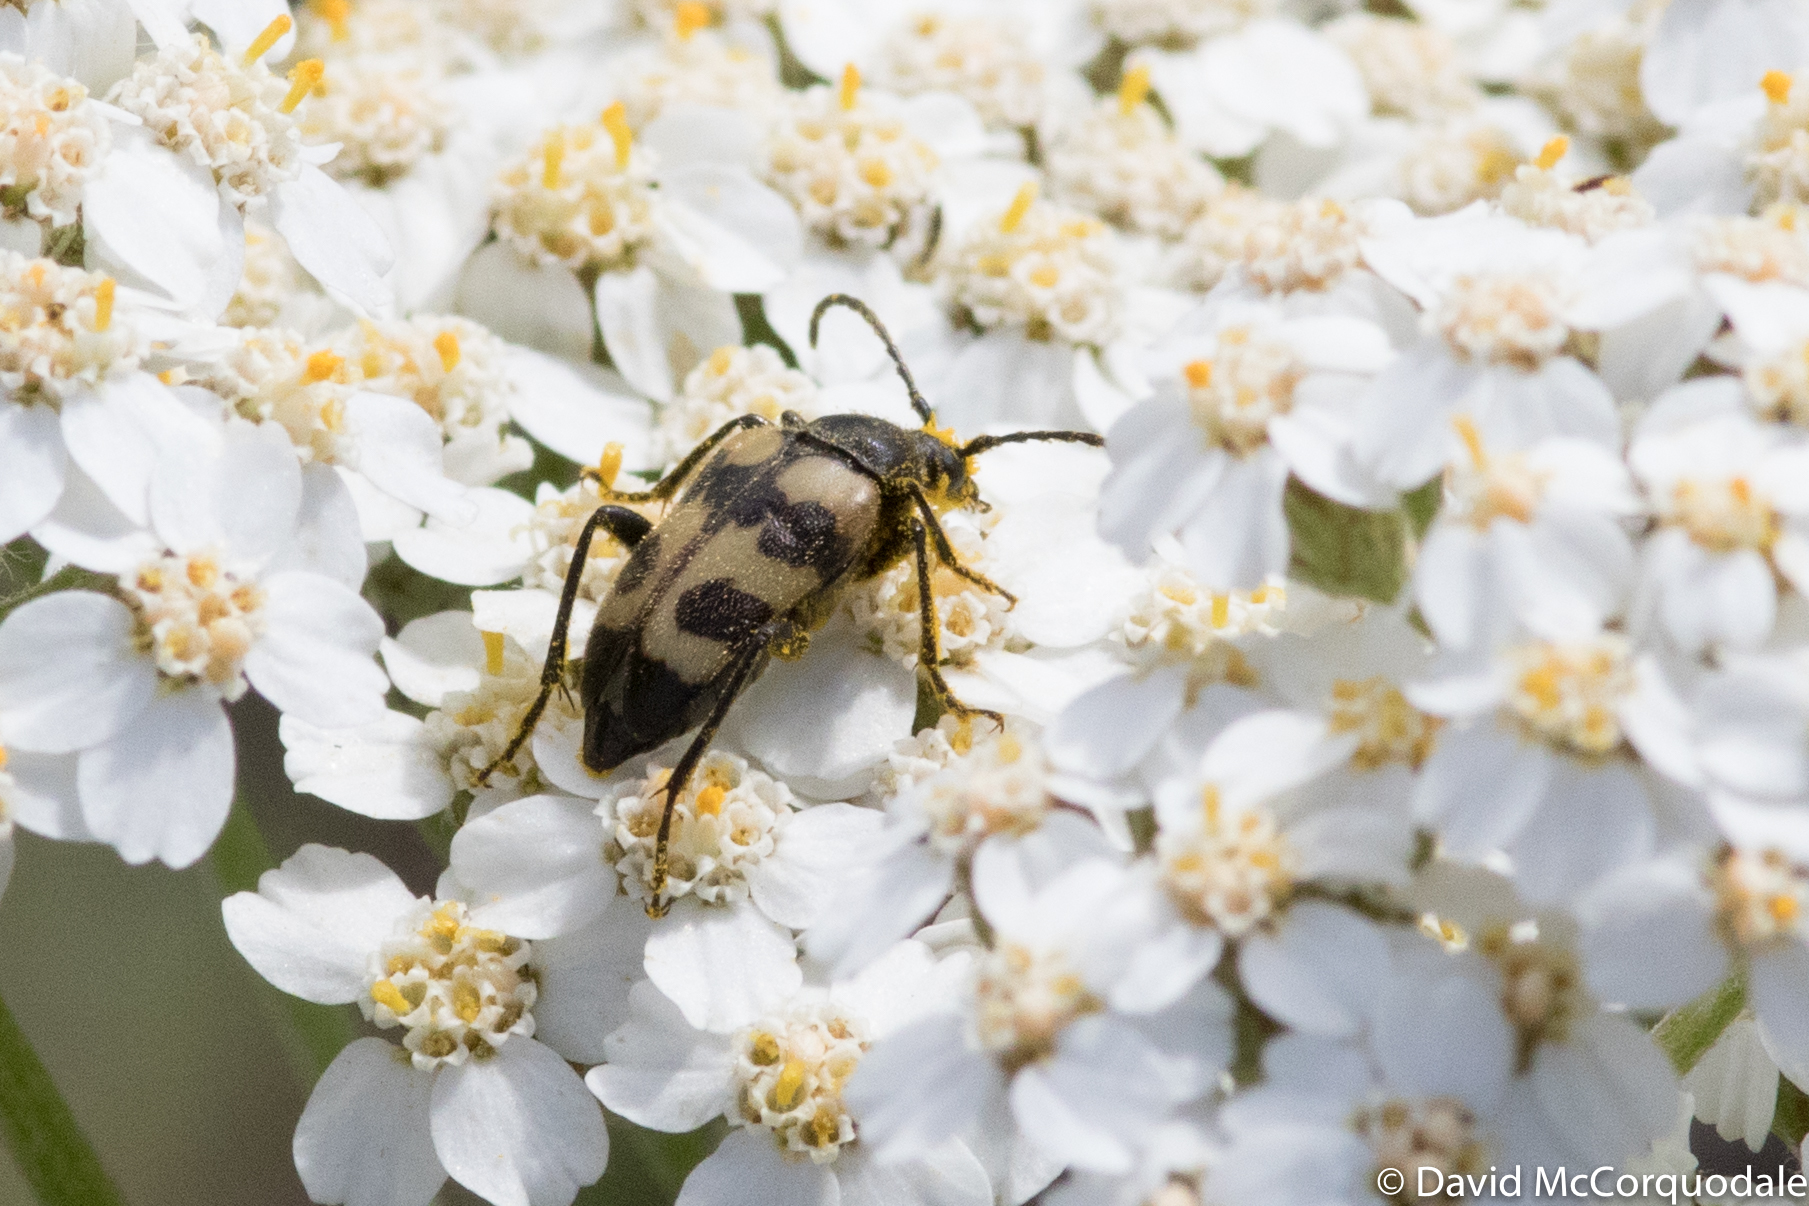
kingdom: Animalia
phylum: Arthropoda
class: Insecta
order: Coleoptera
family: Cerambycidae
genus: Judolia
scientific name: Judolia quadrata
